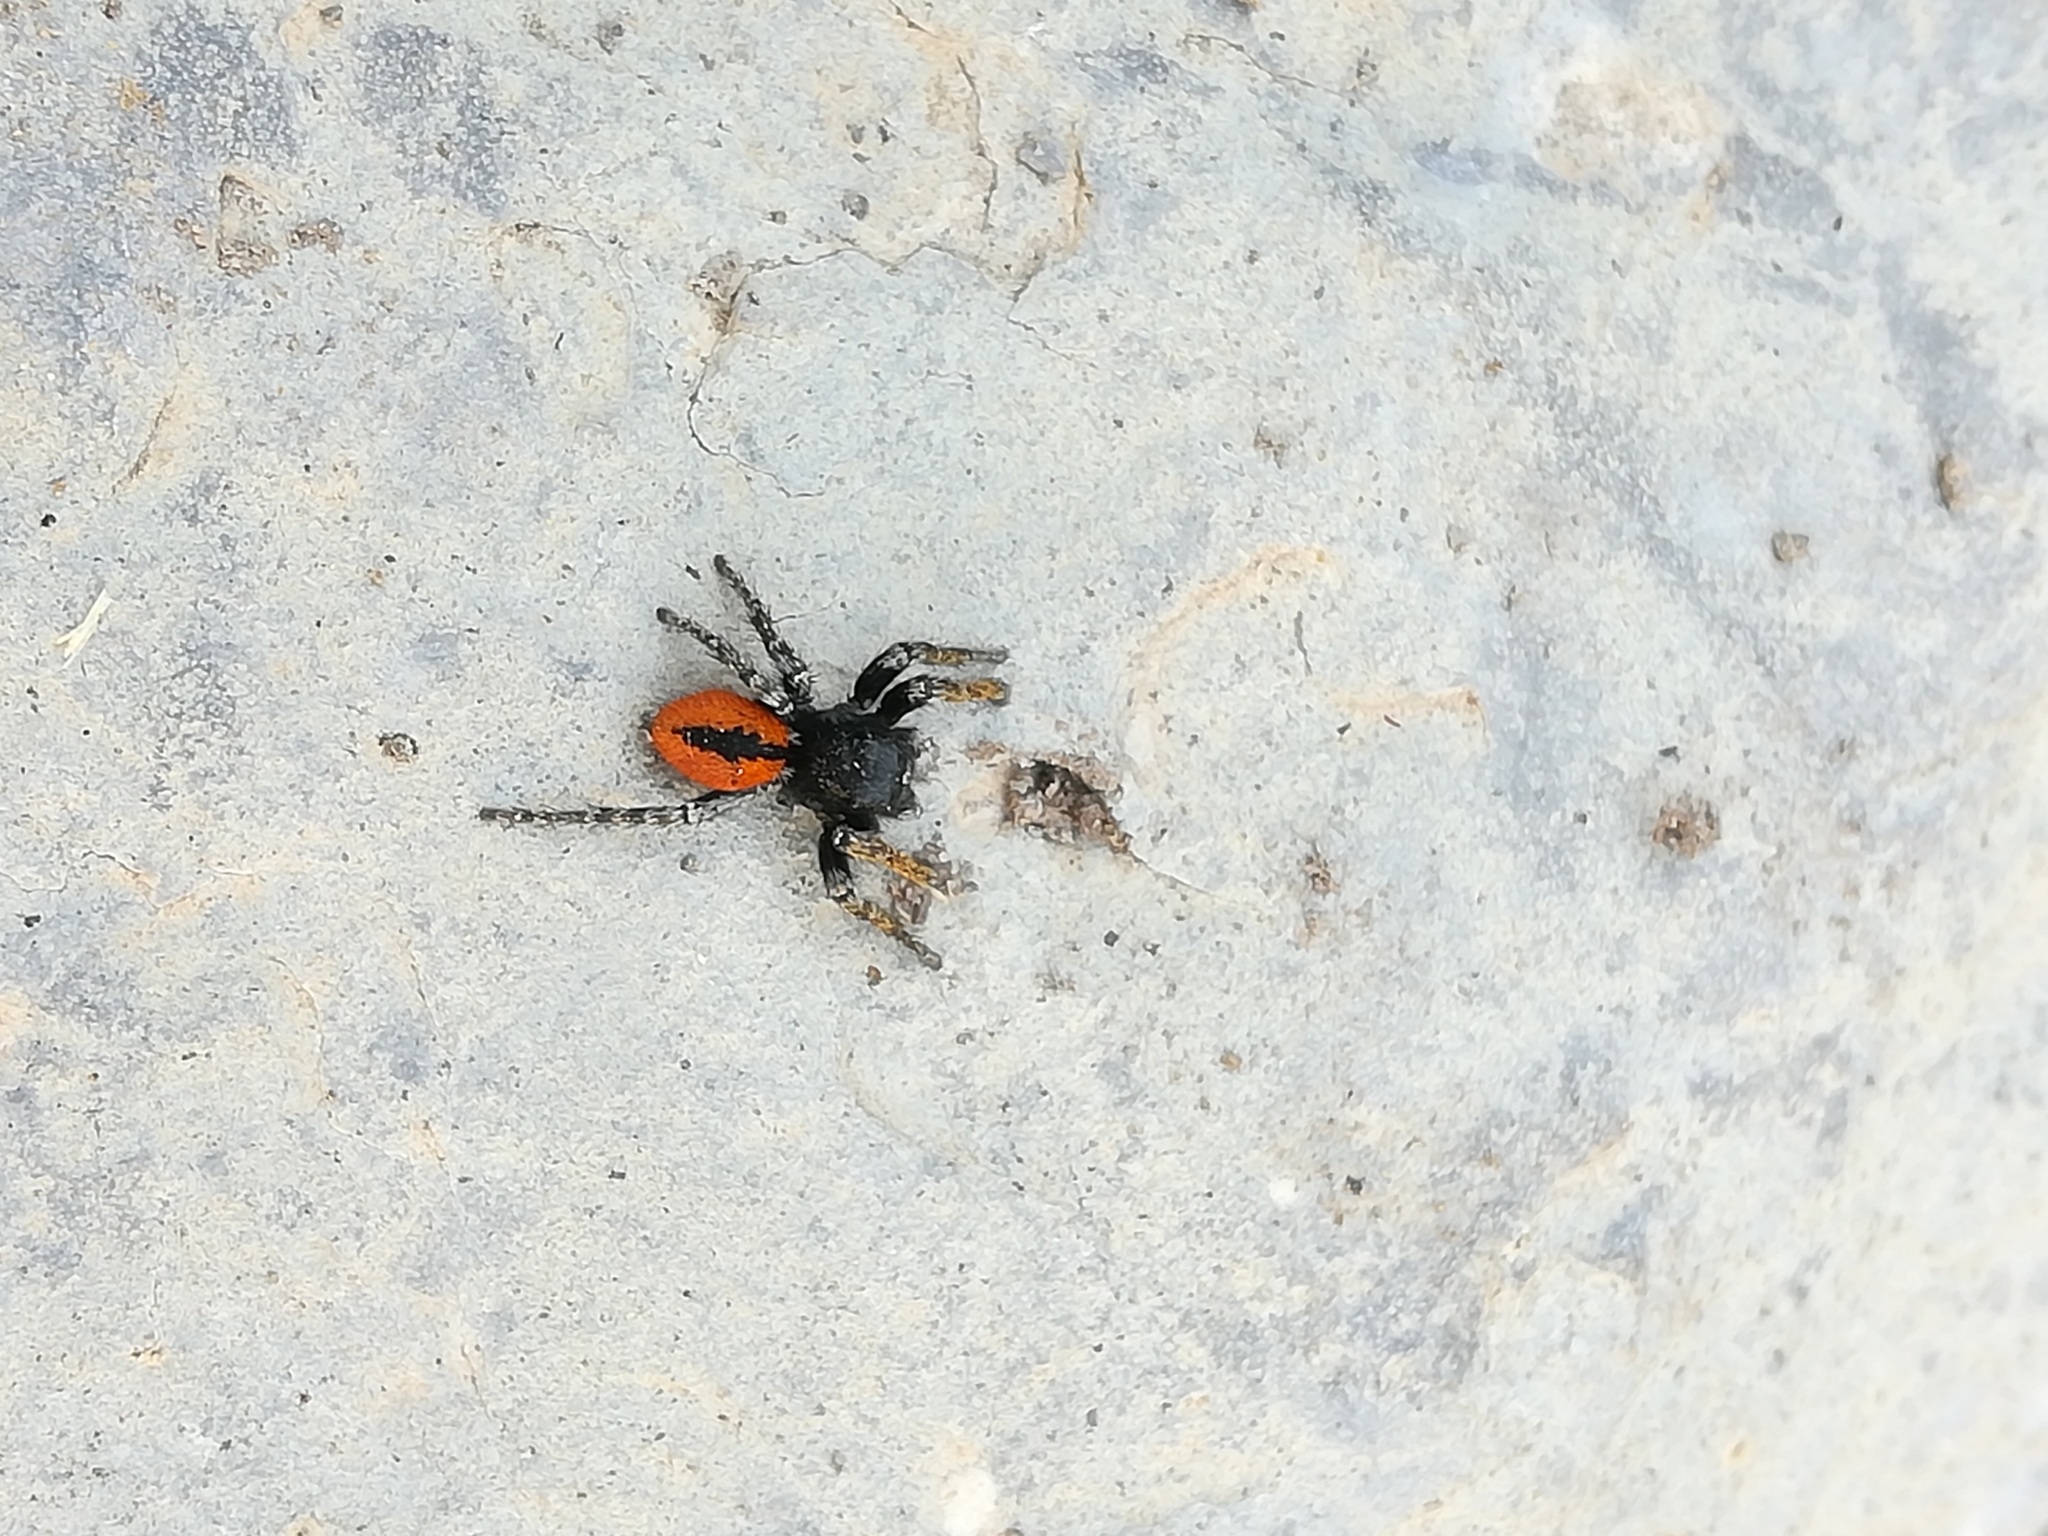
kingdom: Animalia
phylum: Arthropoda
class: Arachnida
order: Araneae
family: Salticidae
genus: Philaeus
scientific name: Philaeus chrysops
